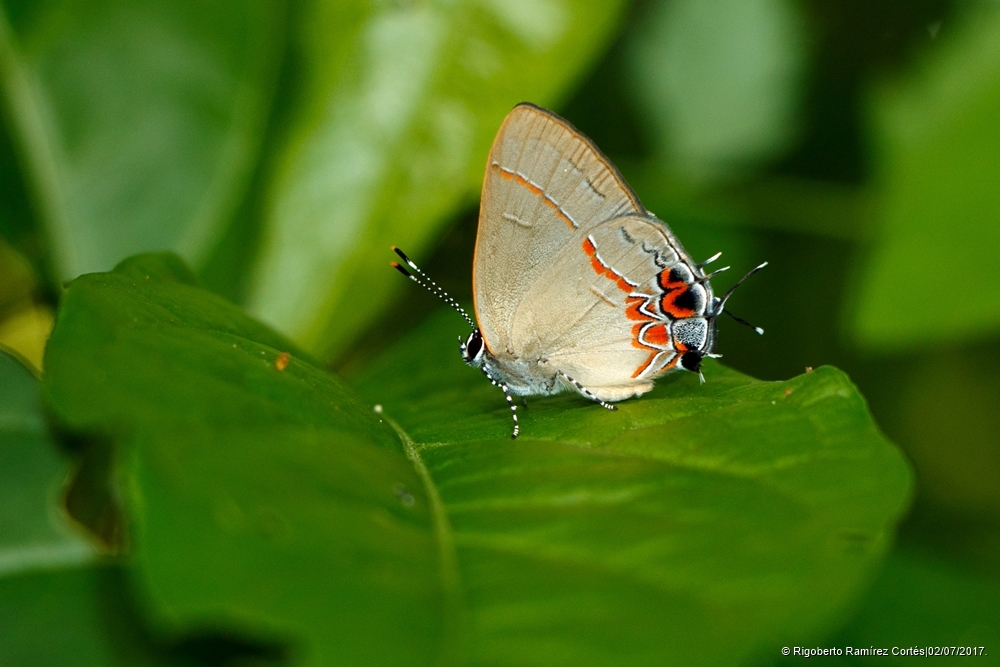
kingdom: Animalia
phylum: Arthropoda
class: Insecta
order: Lepidoptera
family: Lycaenidae
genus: Calycopis
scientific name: Calycopis isobeon
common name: Dusky-blue groundstreak
